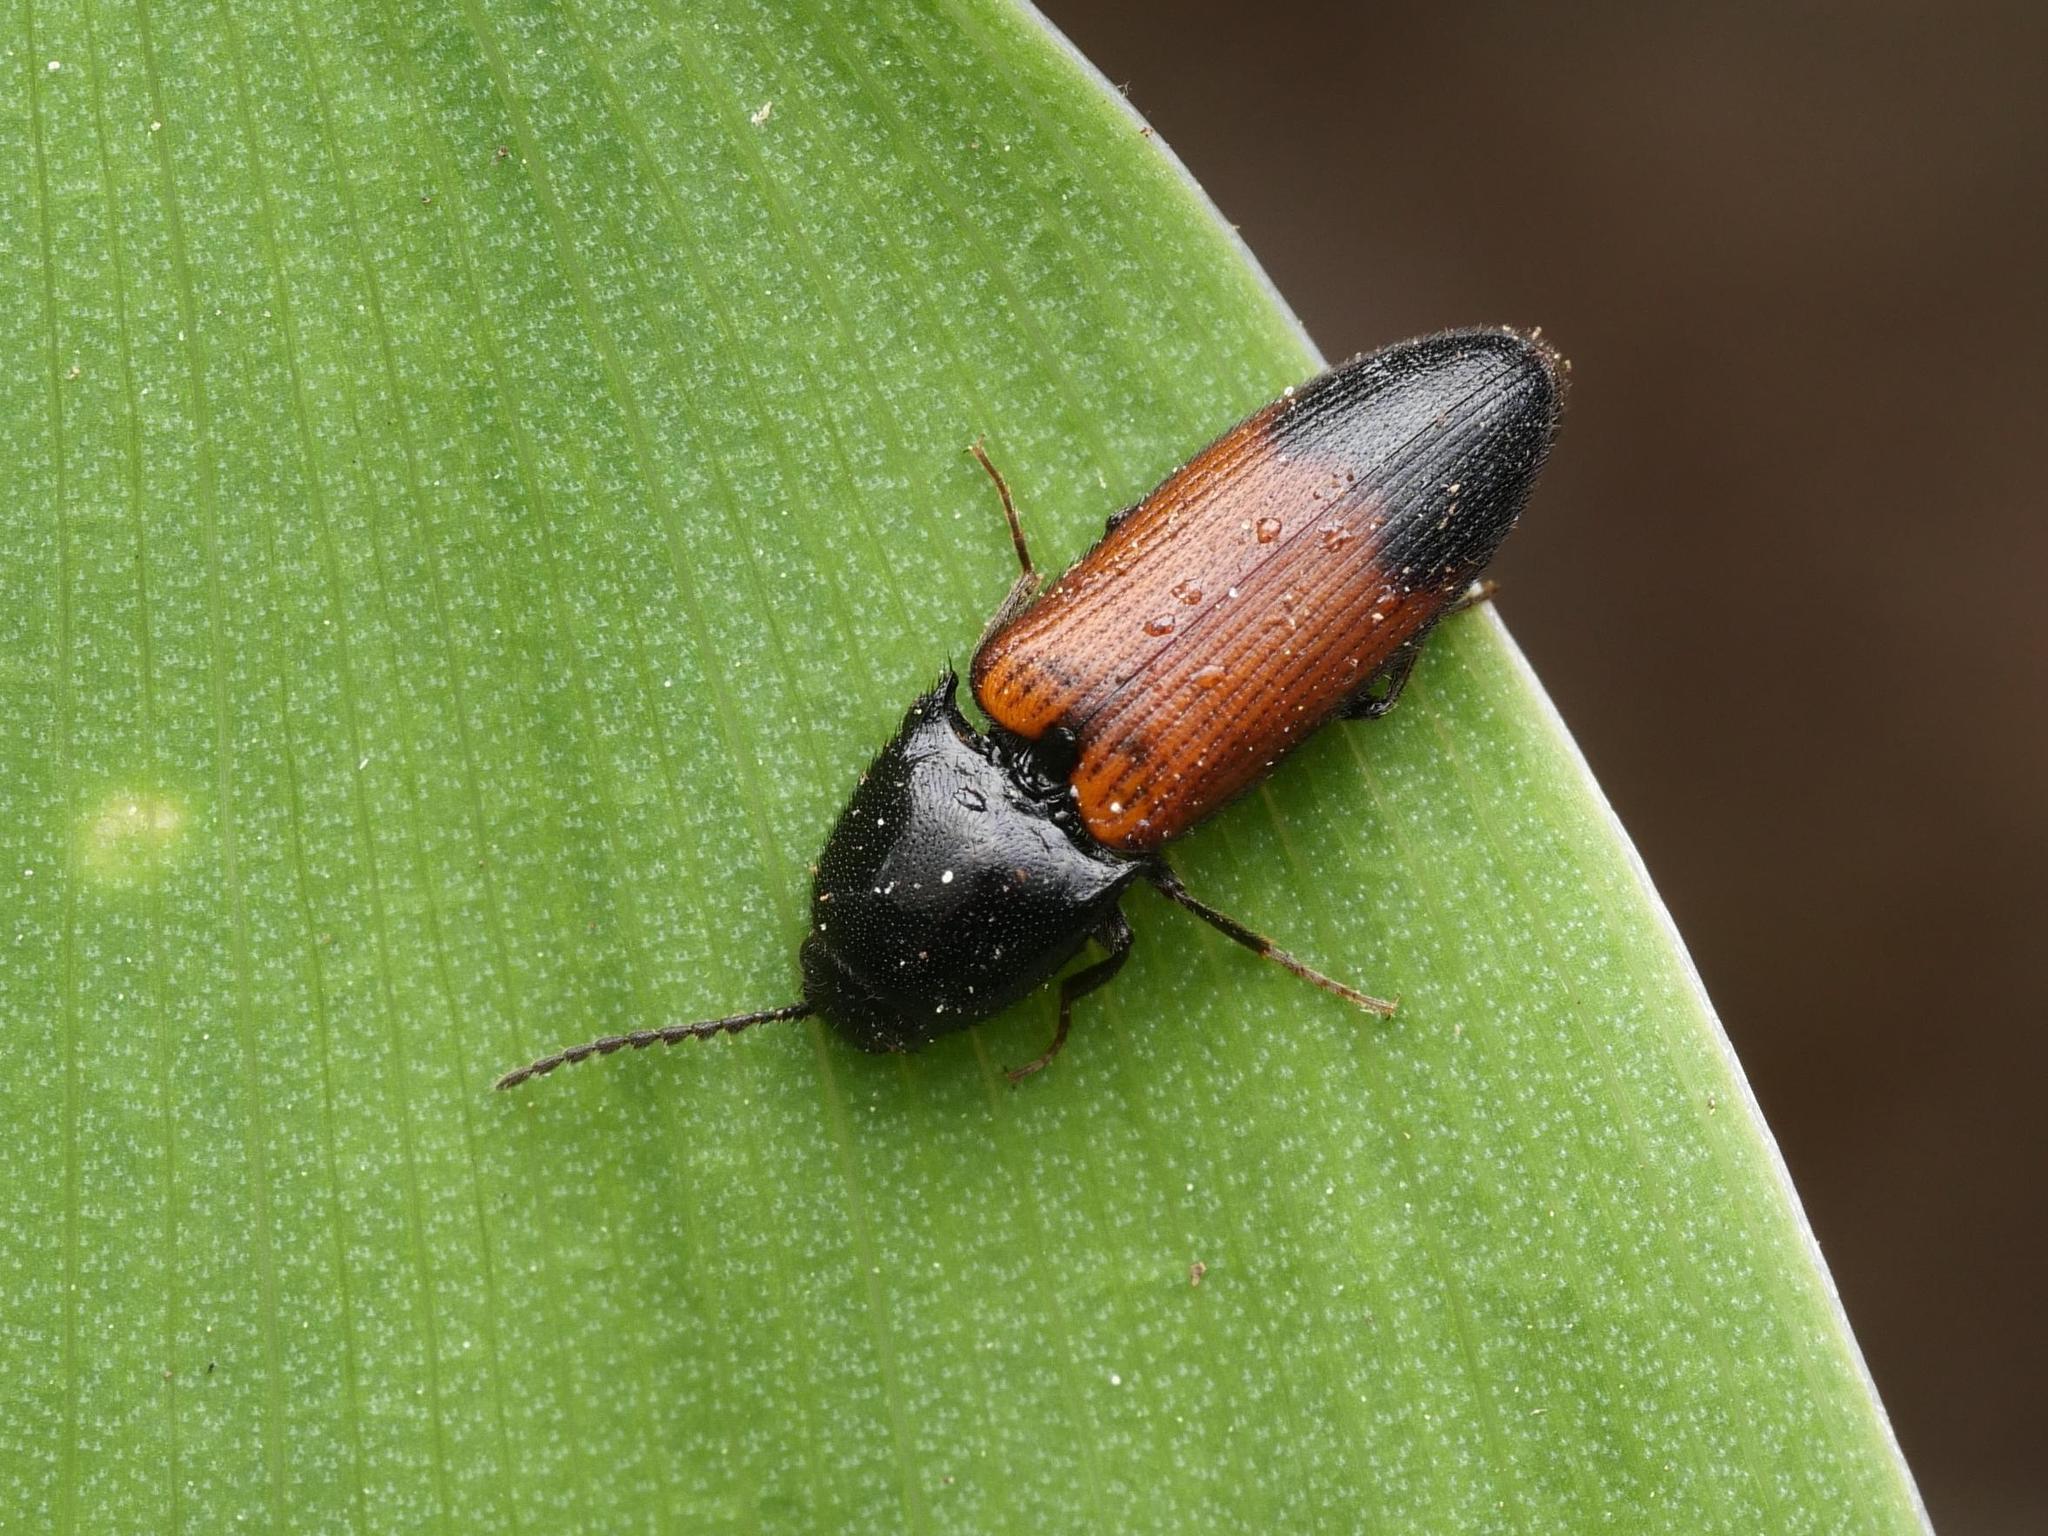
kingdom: Animalia
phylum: Arthropoda
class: Insecta
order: Coleoptera
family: Elateridae
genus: Ampedus
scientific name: Ampedus balteatus
